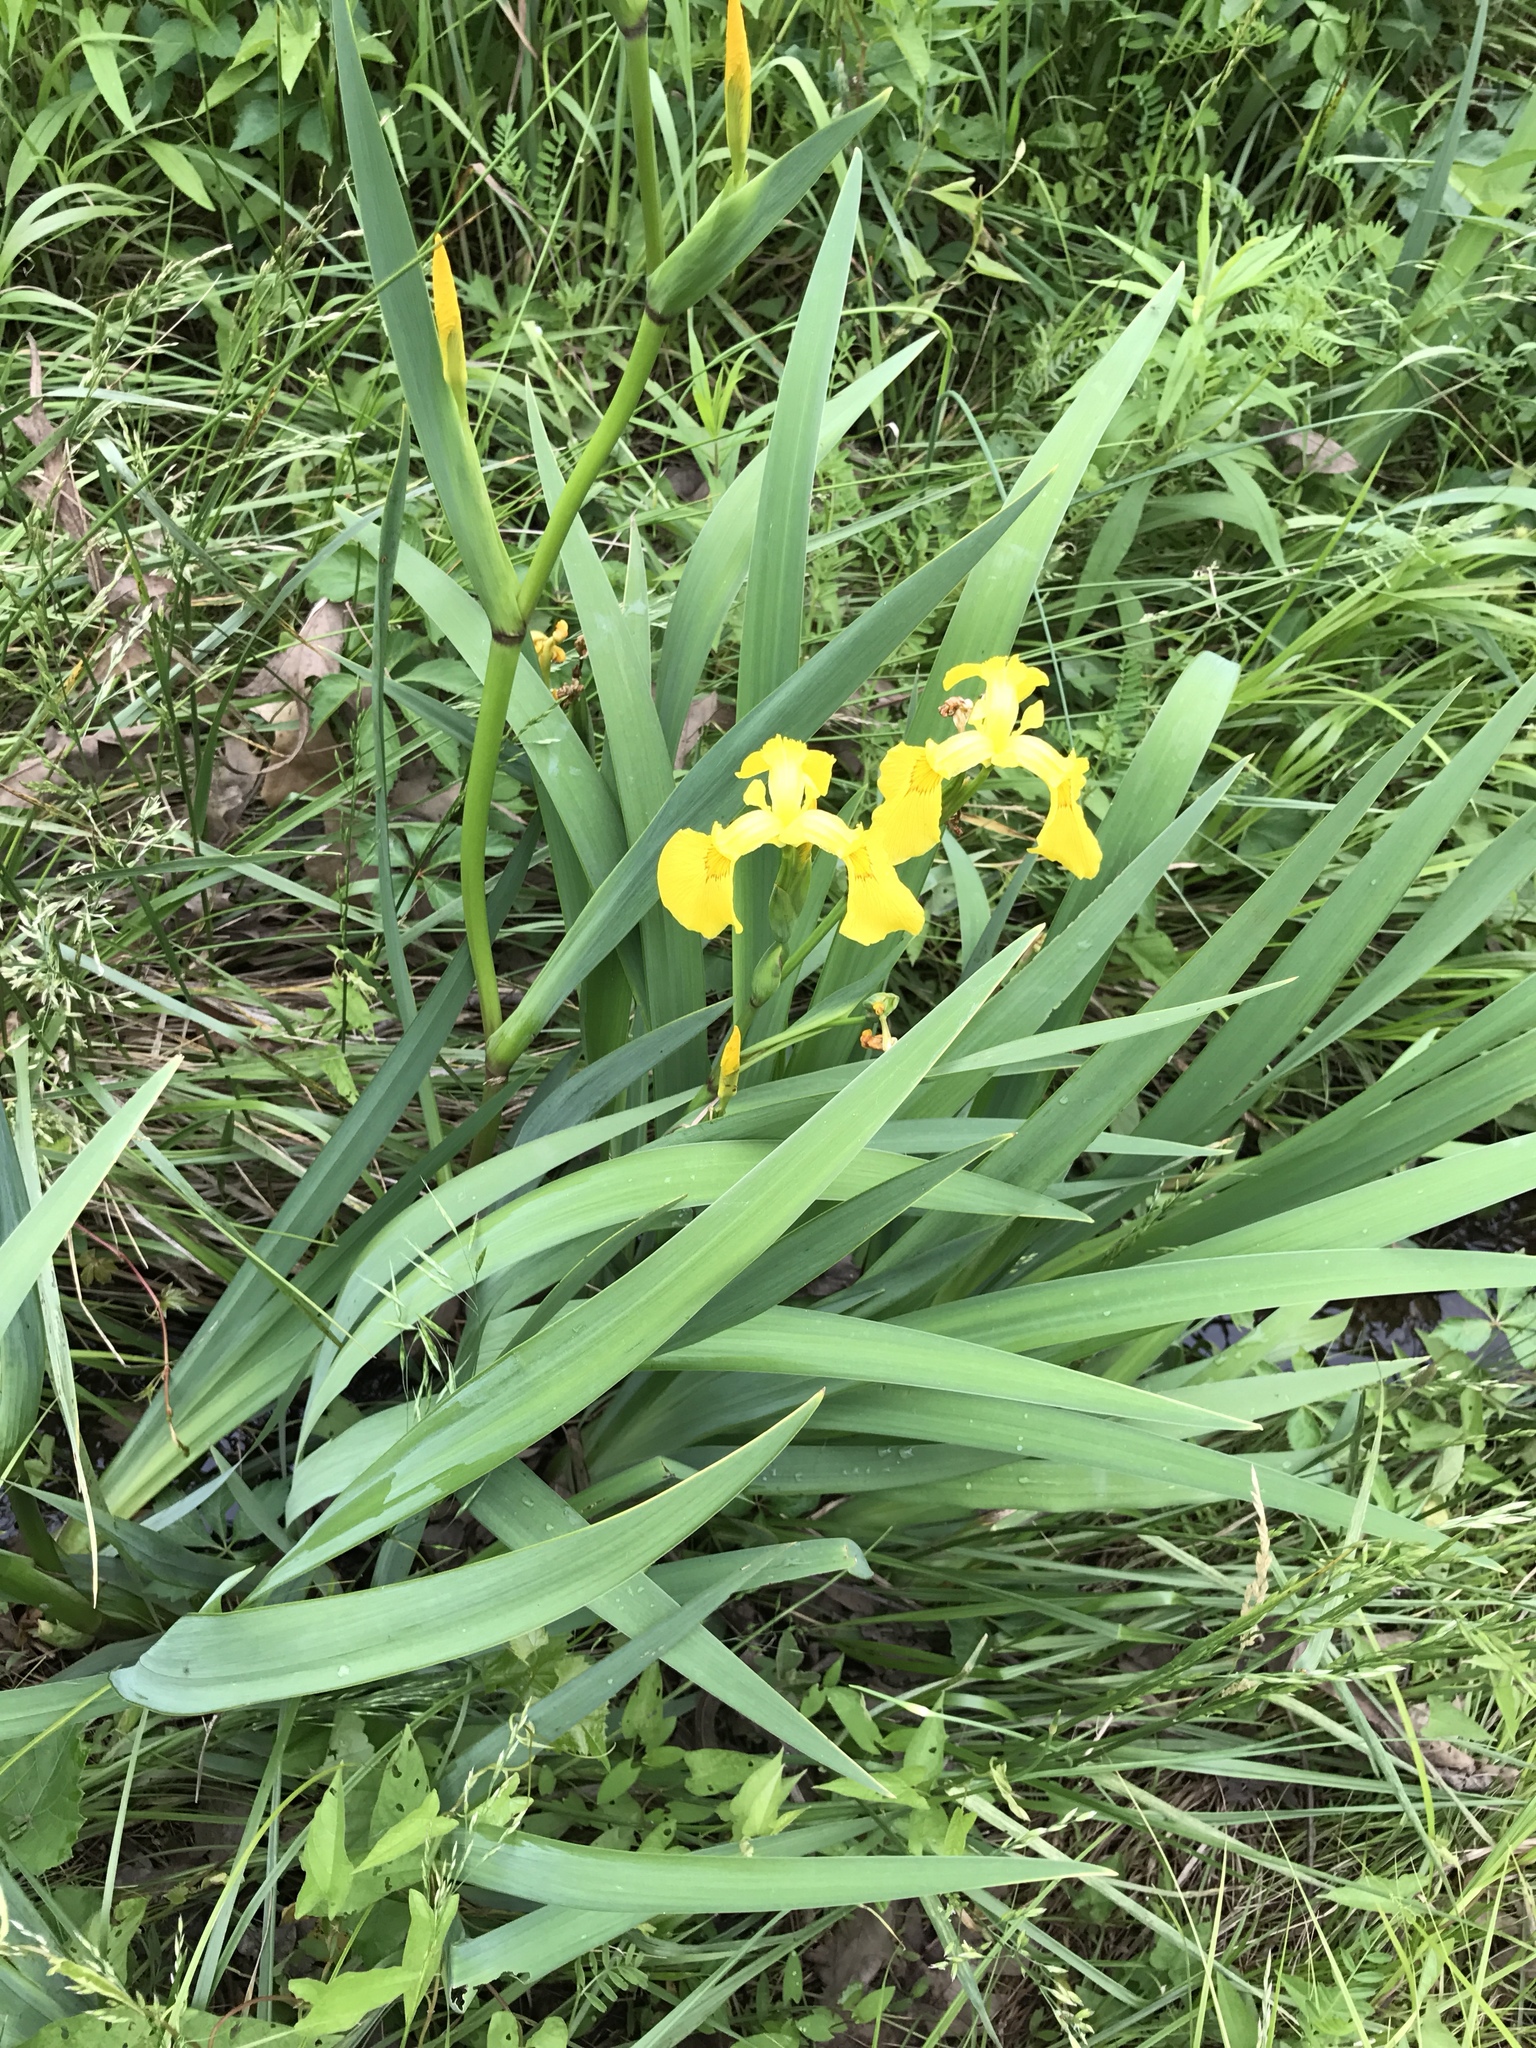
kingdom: Plantae
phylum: Tracheophyta
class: Liliopsida
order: Asparagales
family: Iridaceae
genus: Iris
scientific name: Iris pseudacorus
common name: Yellow flag
